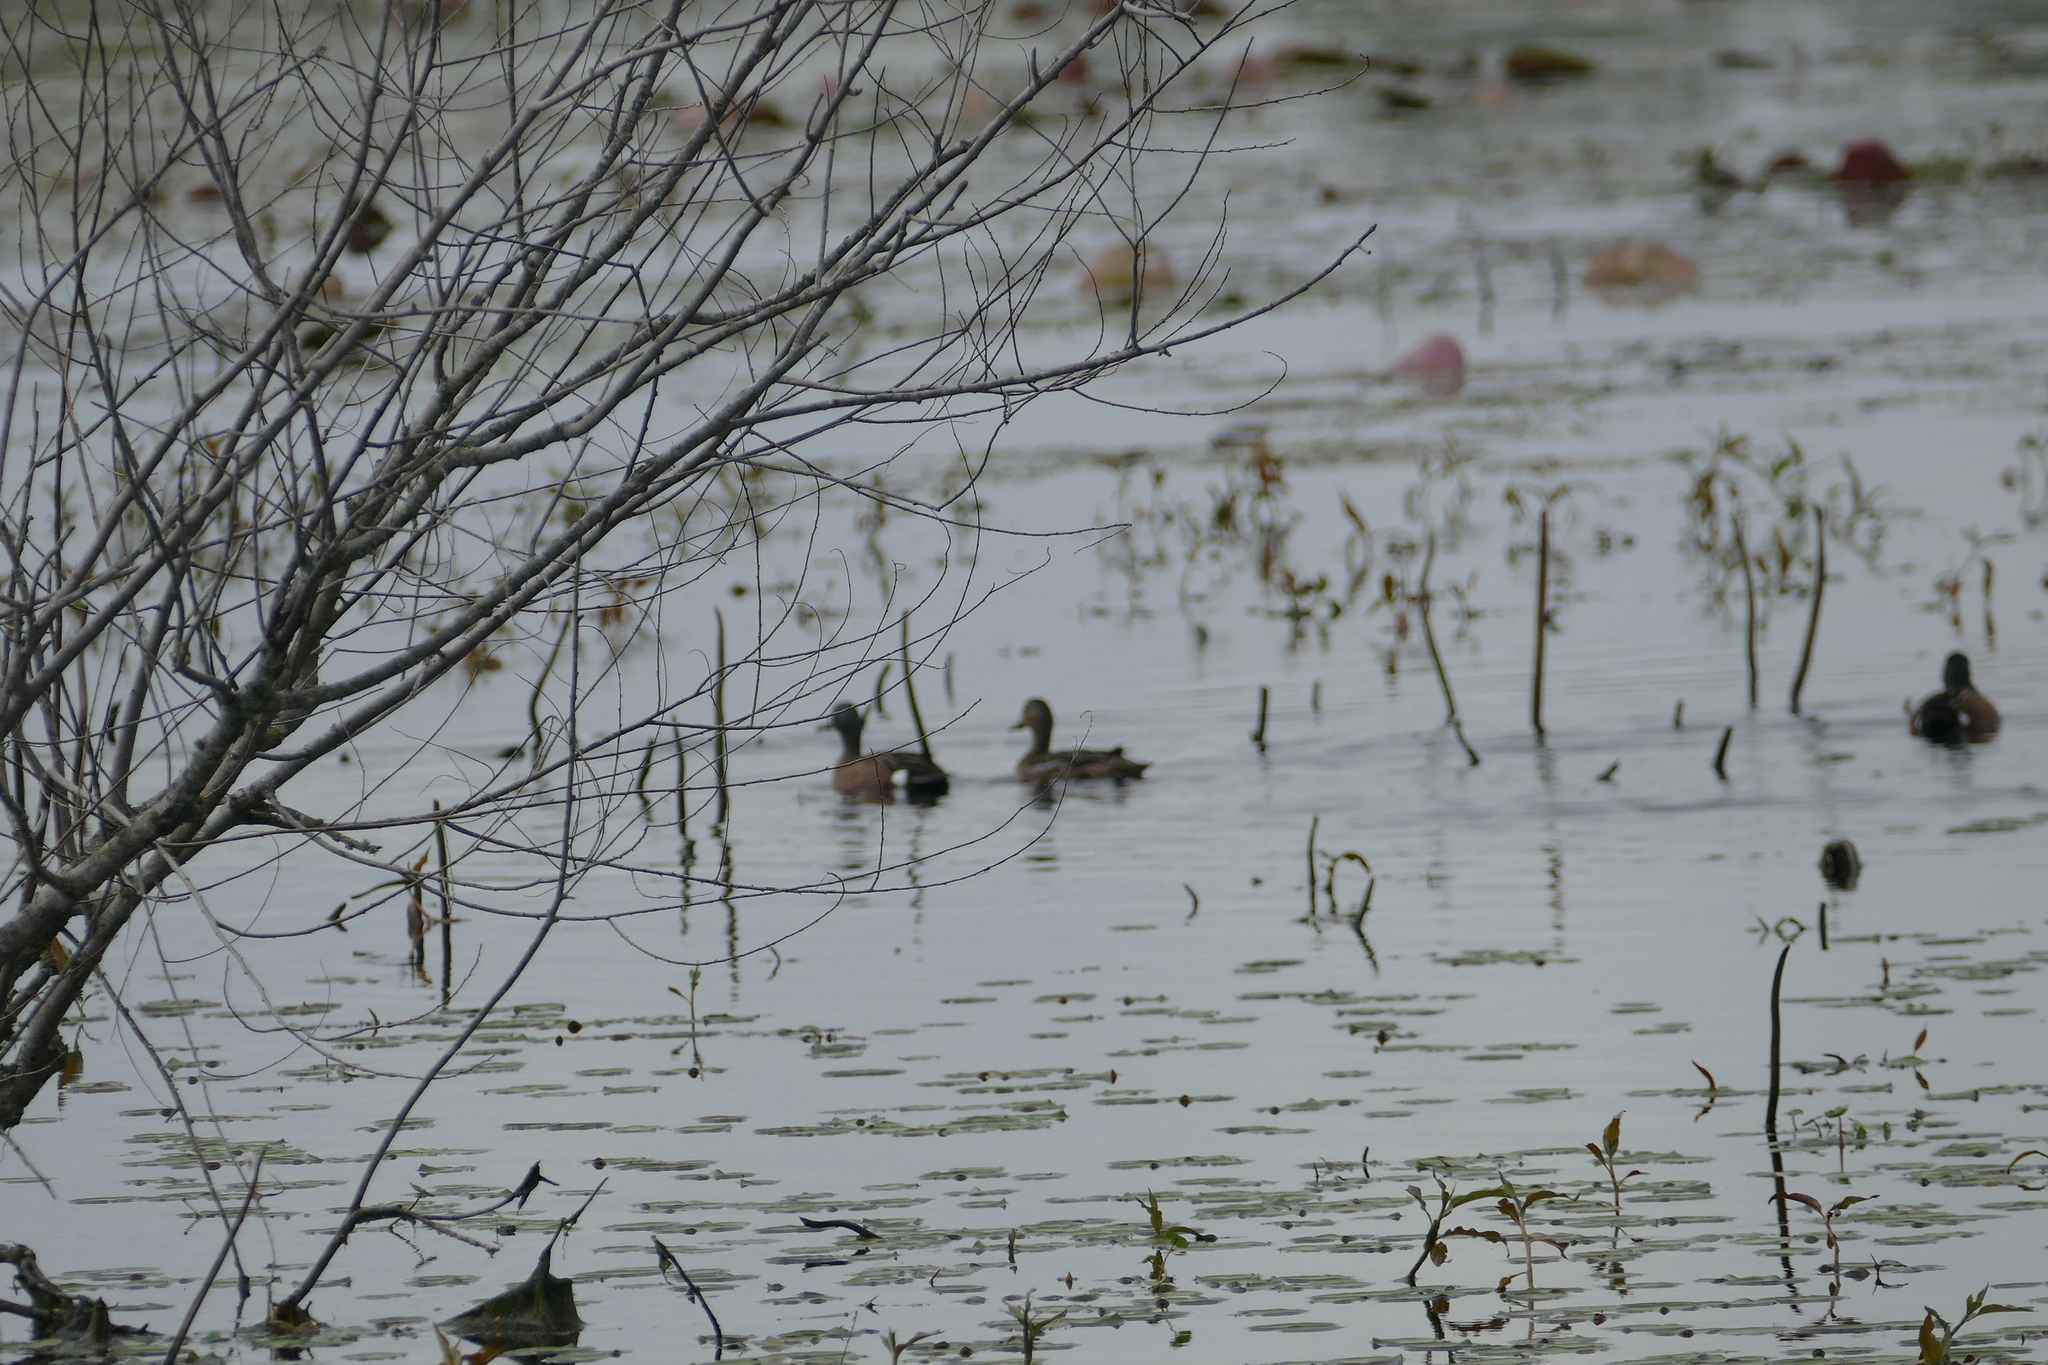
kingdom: Animalia
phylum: Chordata
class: Aves
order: Anseriformes
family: Anatidae
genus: Spatula
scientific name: Spatula discors
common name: Blue-winged teal
